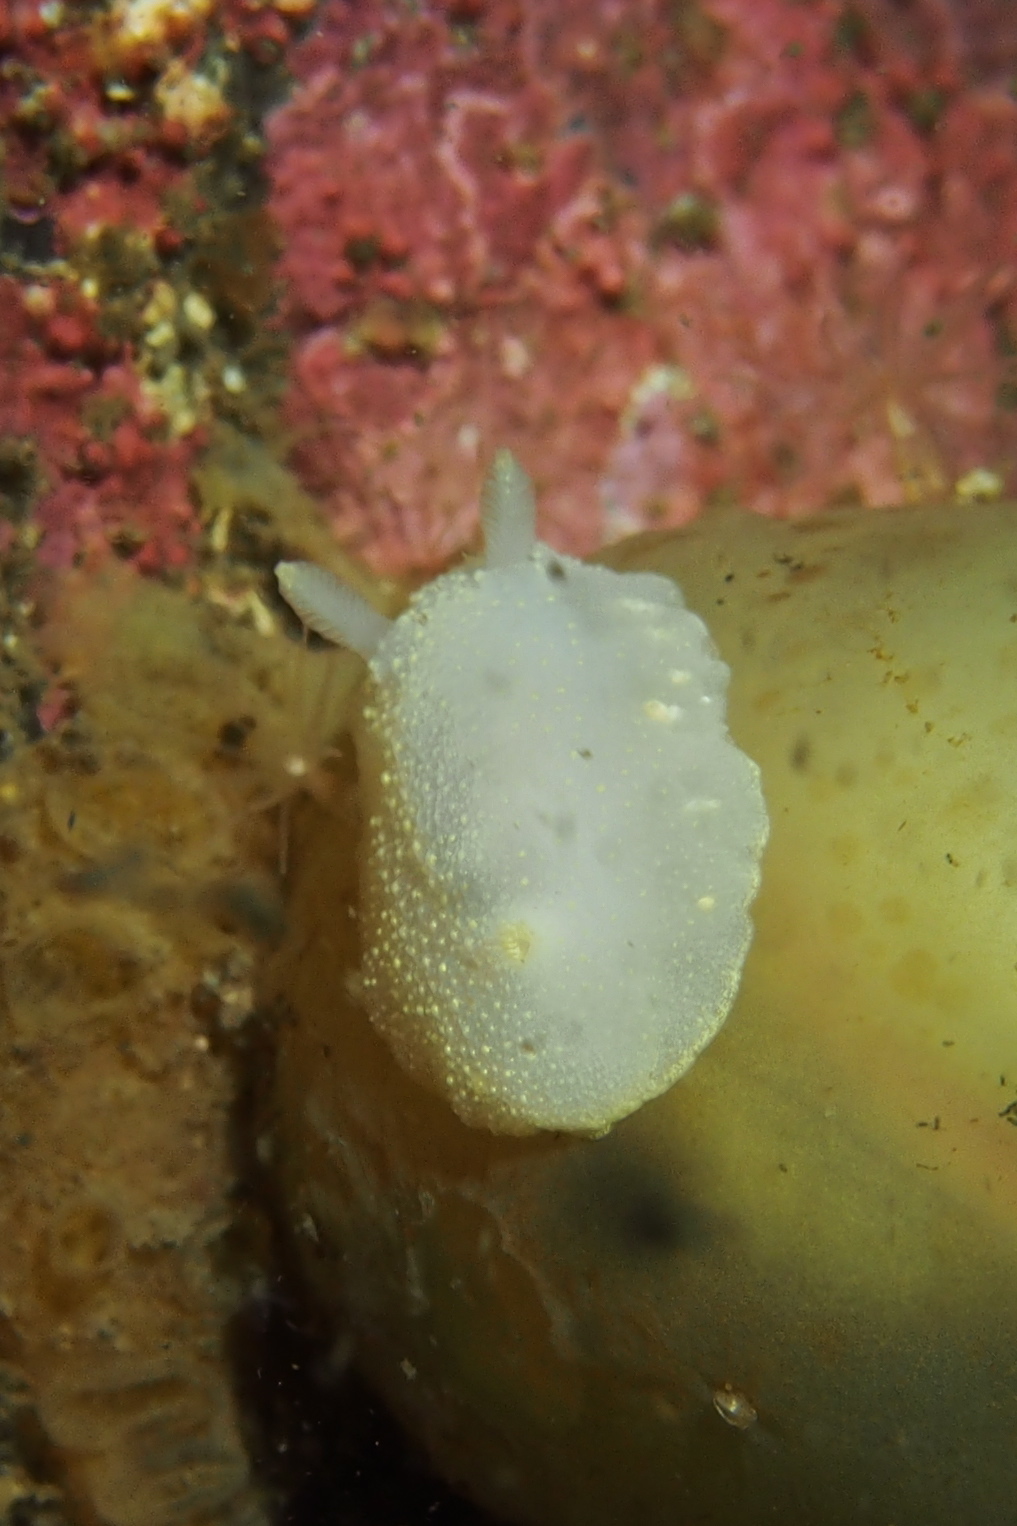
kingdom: Animalia
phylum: Mollusca
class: Gastropoda
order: Nudibranchia
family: Cadlinidae
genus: Cadlina
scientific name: Cadlina laevis
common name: White atlantic cadlina
